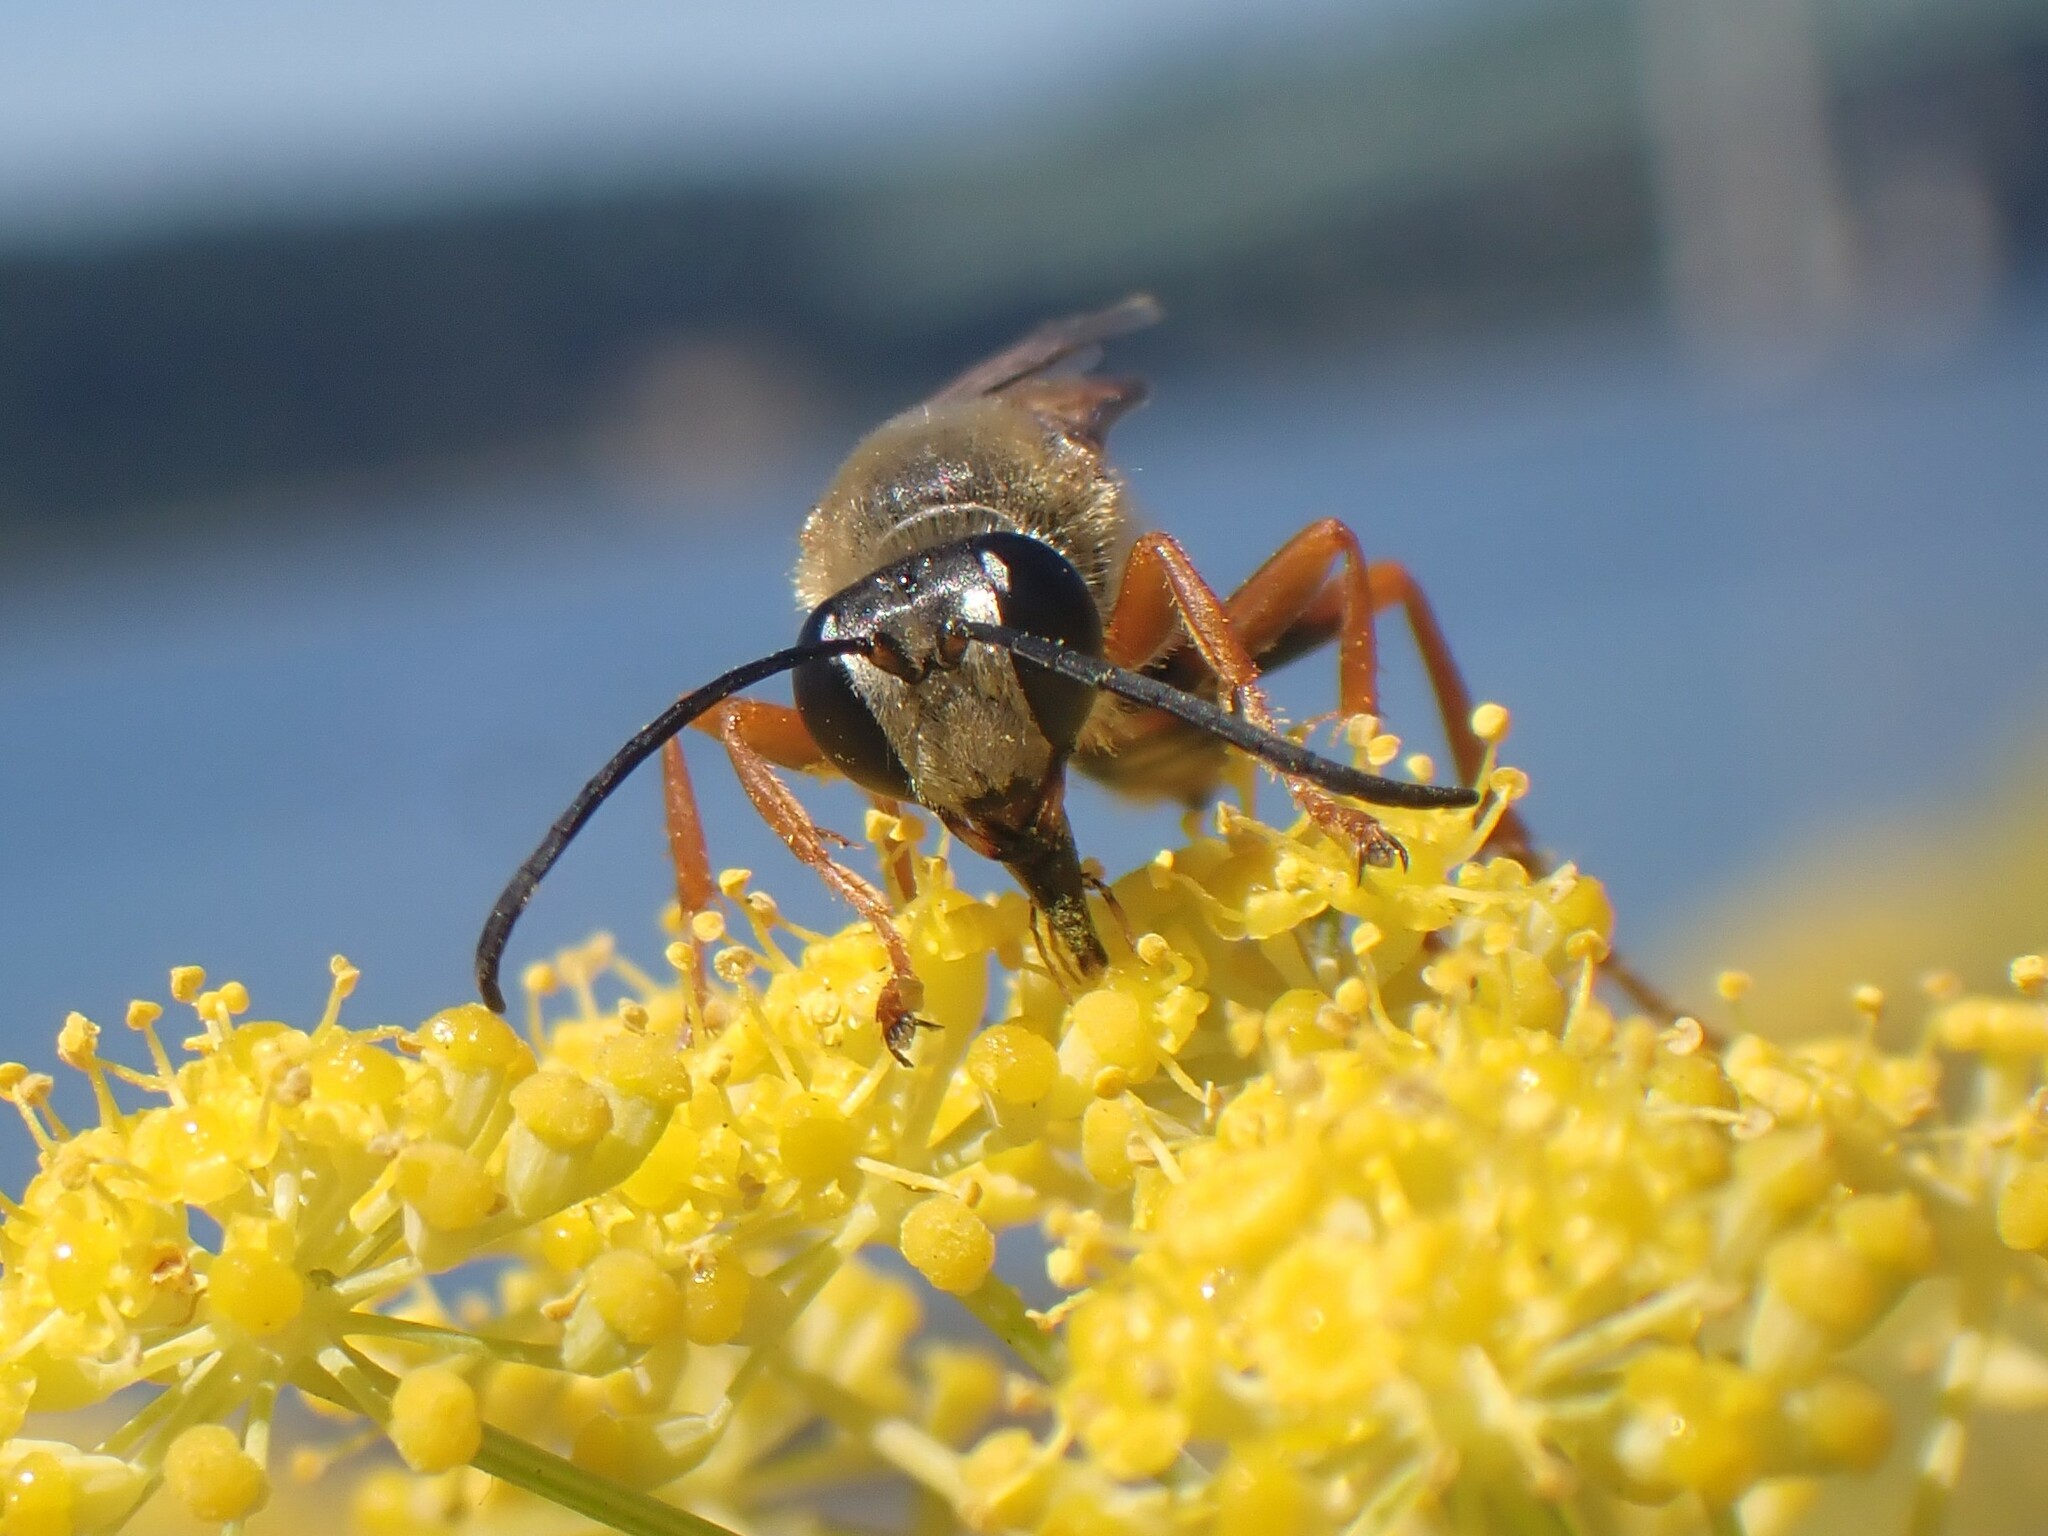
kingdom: Animalia
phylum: Arthropoda
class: Insecta
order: Hymenoptera
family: Sphecidae
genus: Sphex
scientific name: Sphex ichneumoneus
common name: Great golden digger wasp
